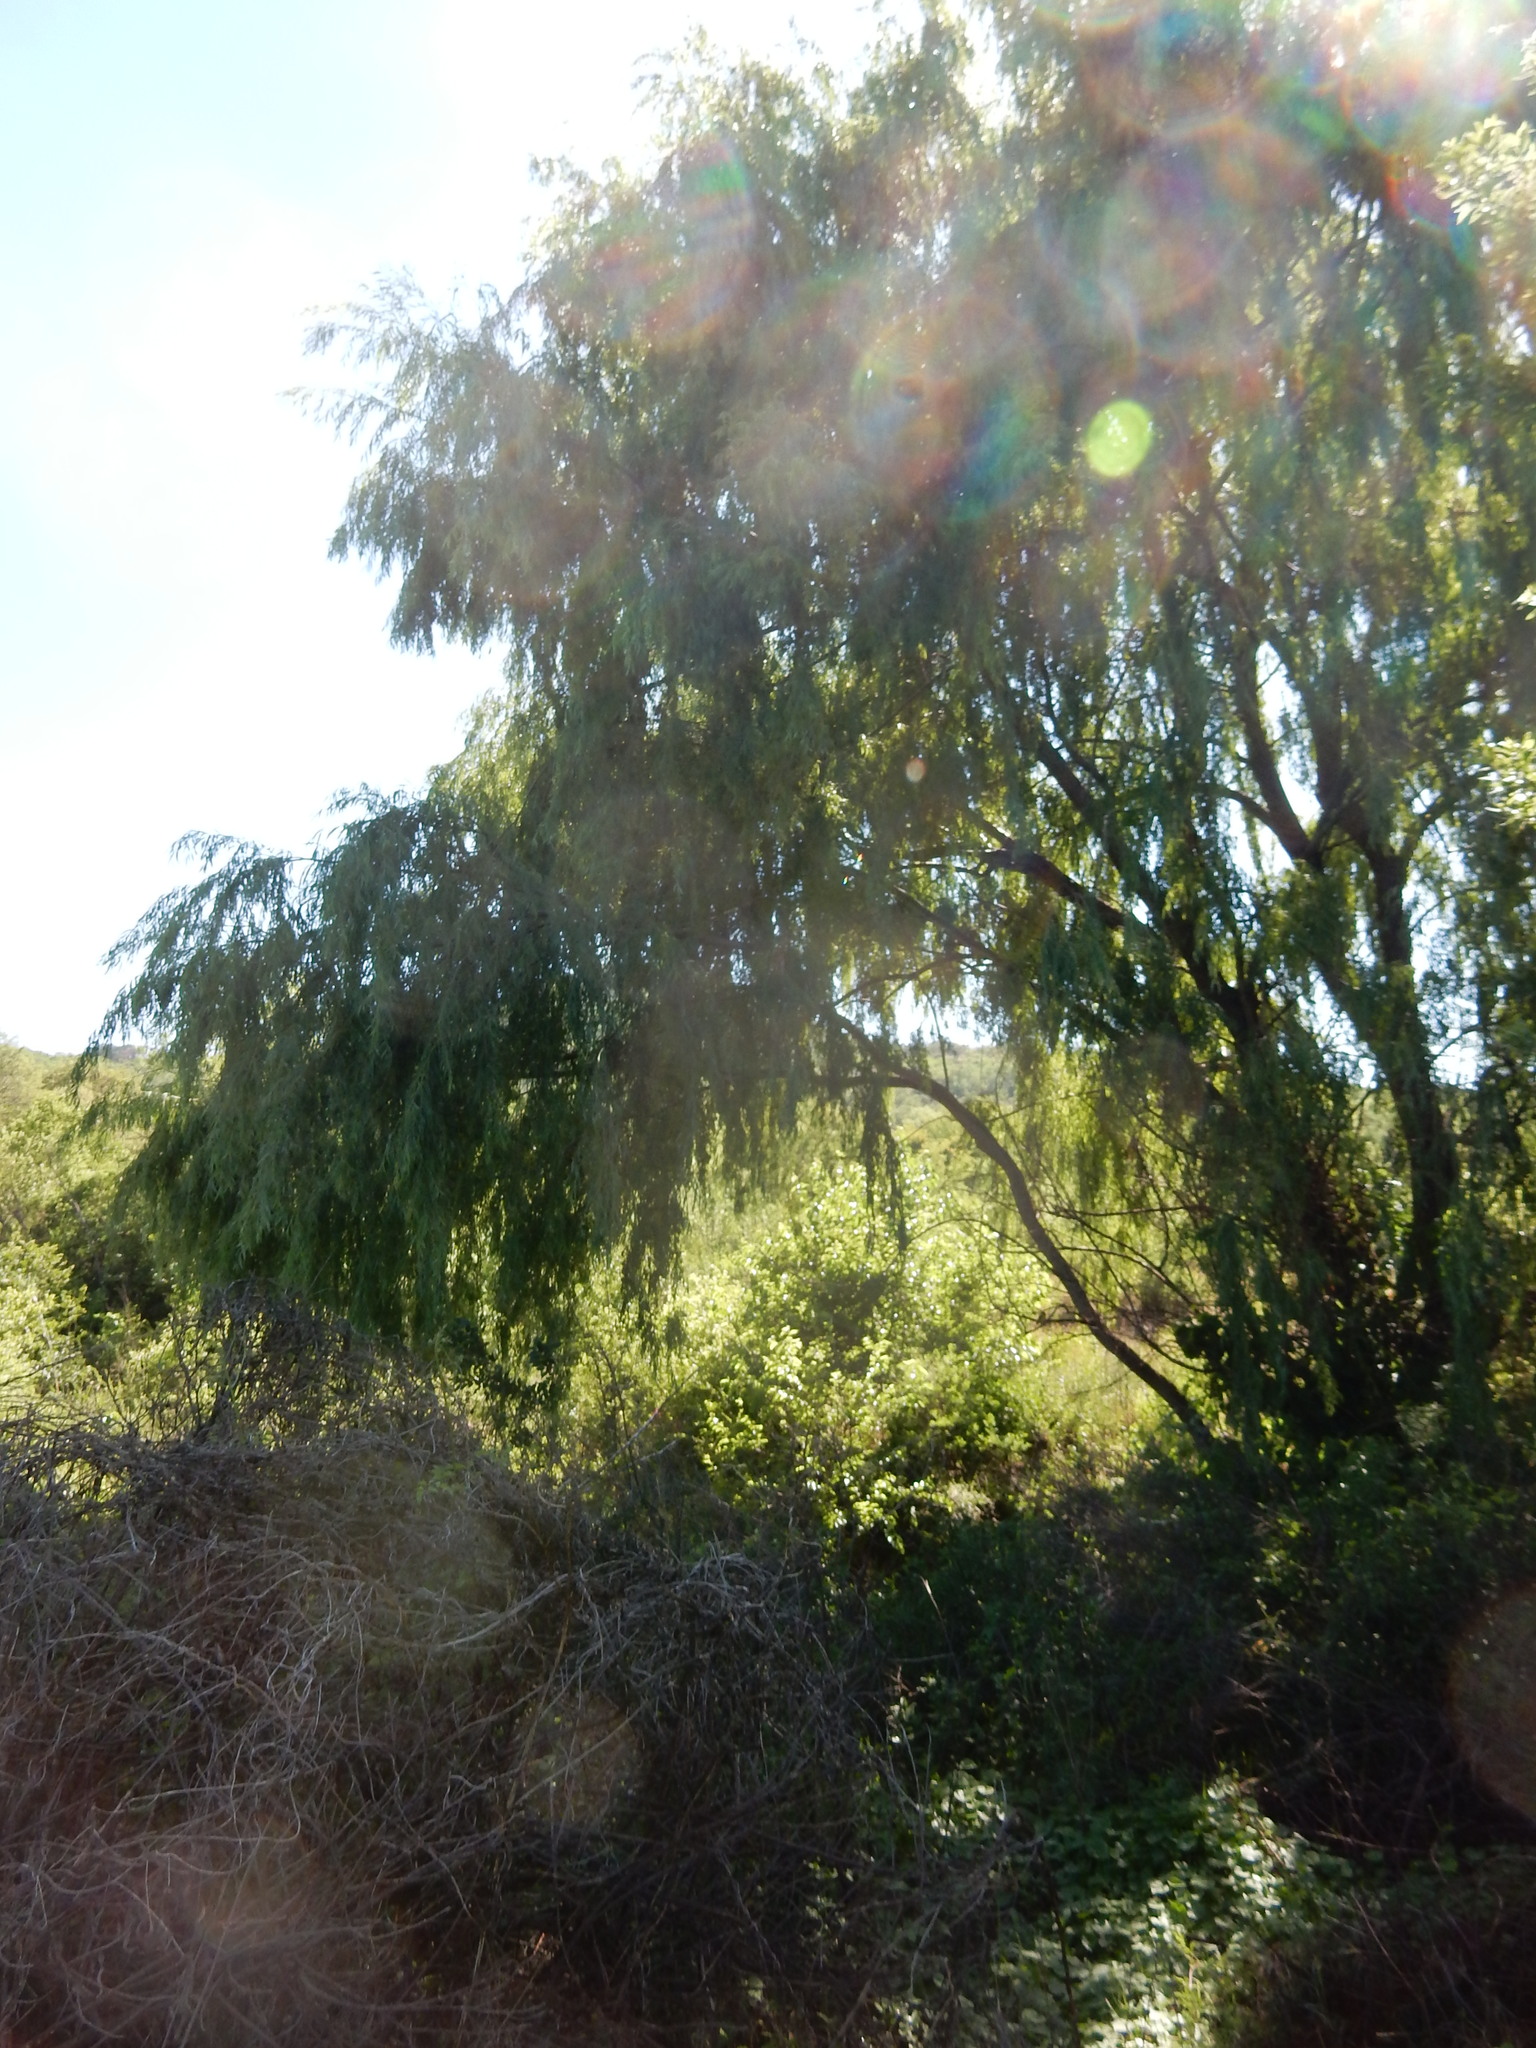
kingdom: Plantae
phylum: Tracheophyta
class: Magnoliopsida
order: Malpighiales
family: Salicaceae
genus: Salix
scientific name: Salix babylonica
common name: Weeping willow
